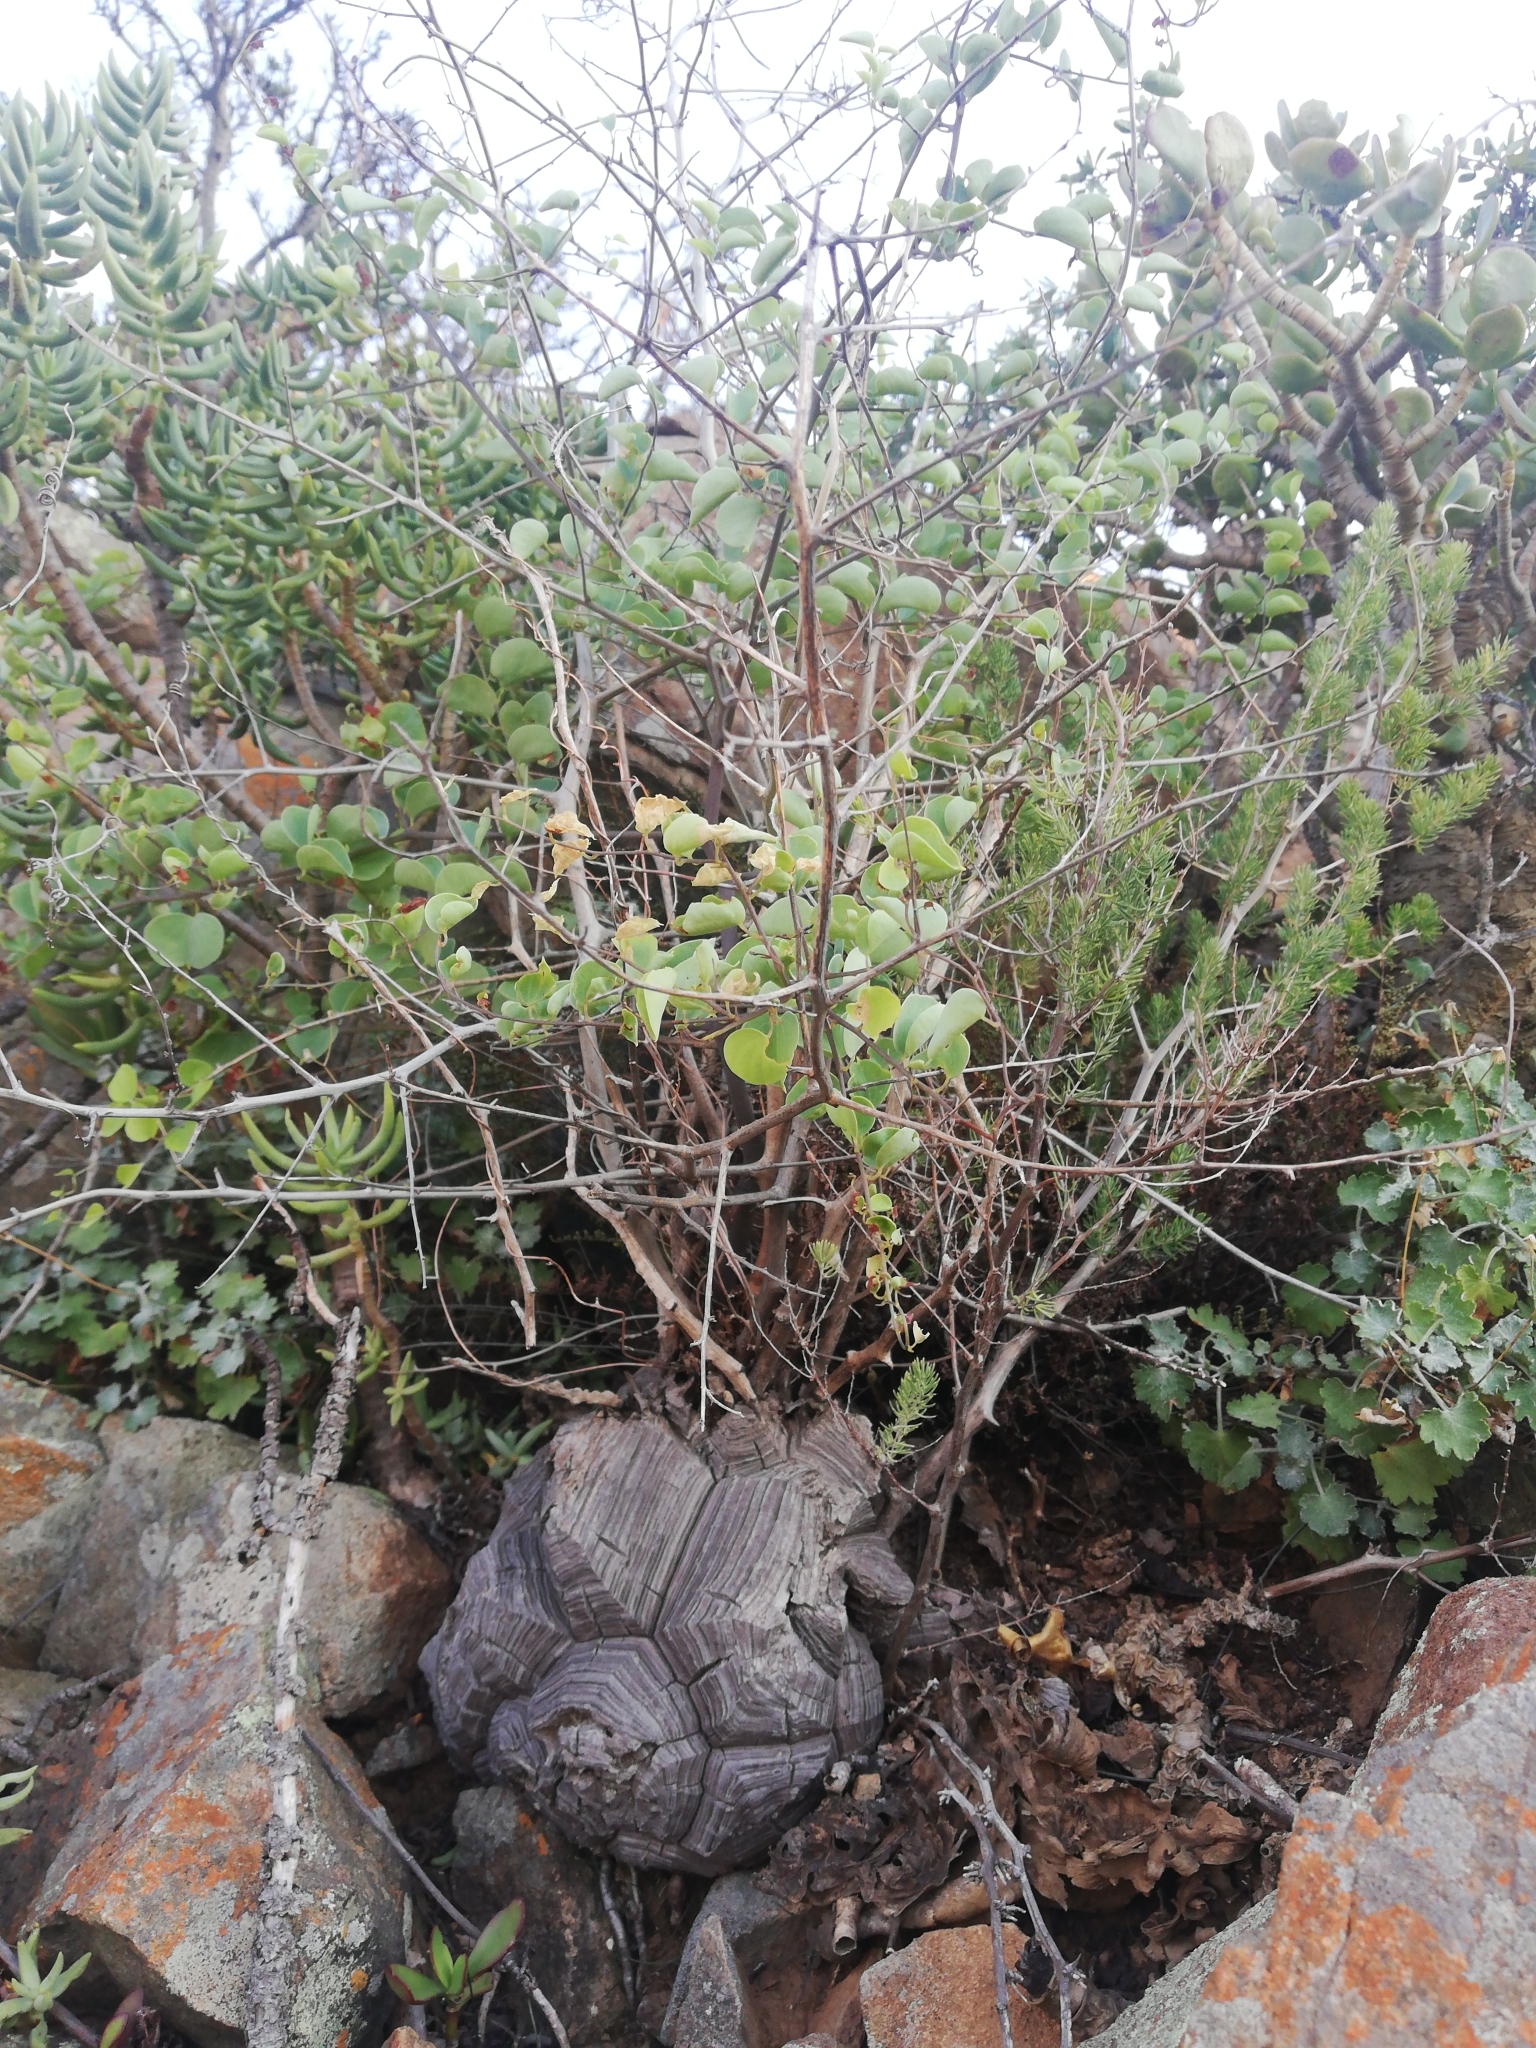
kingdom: Plantae
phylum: Tracheophyta
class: Liliopsida
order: Dioscoreales
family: Dioscoreaceae
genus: Dioscorea
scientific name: Dioscorea elephantipes
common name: Elephant's foot yam
